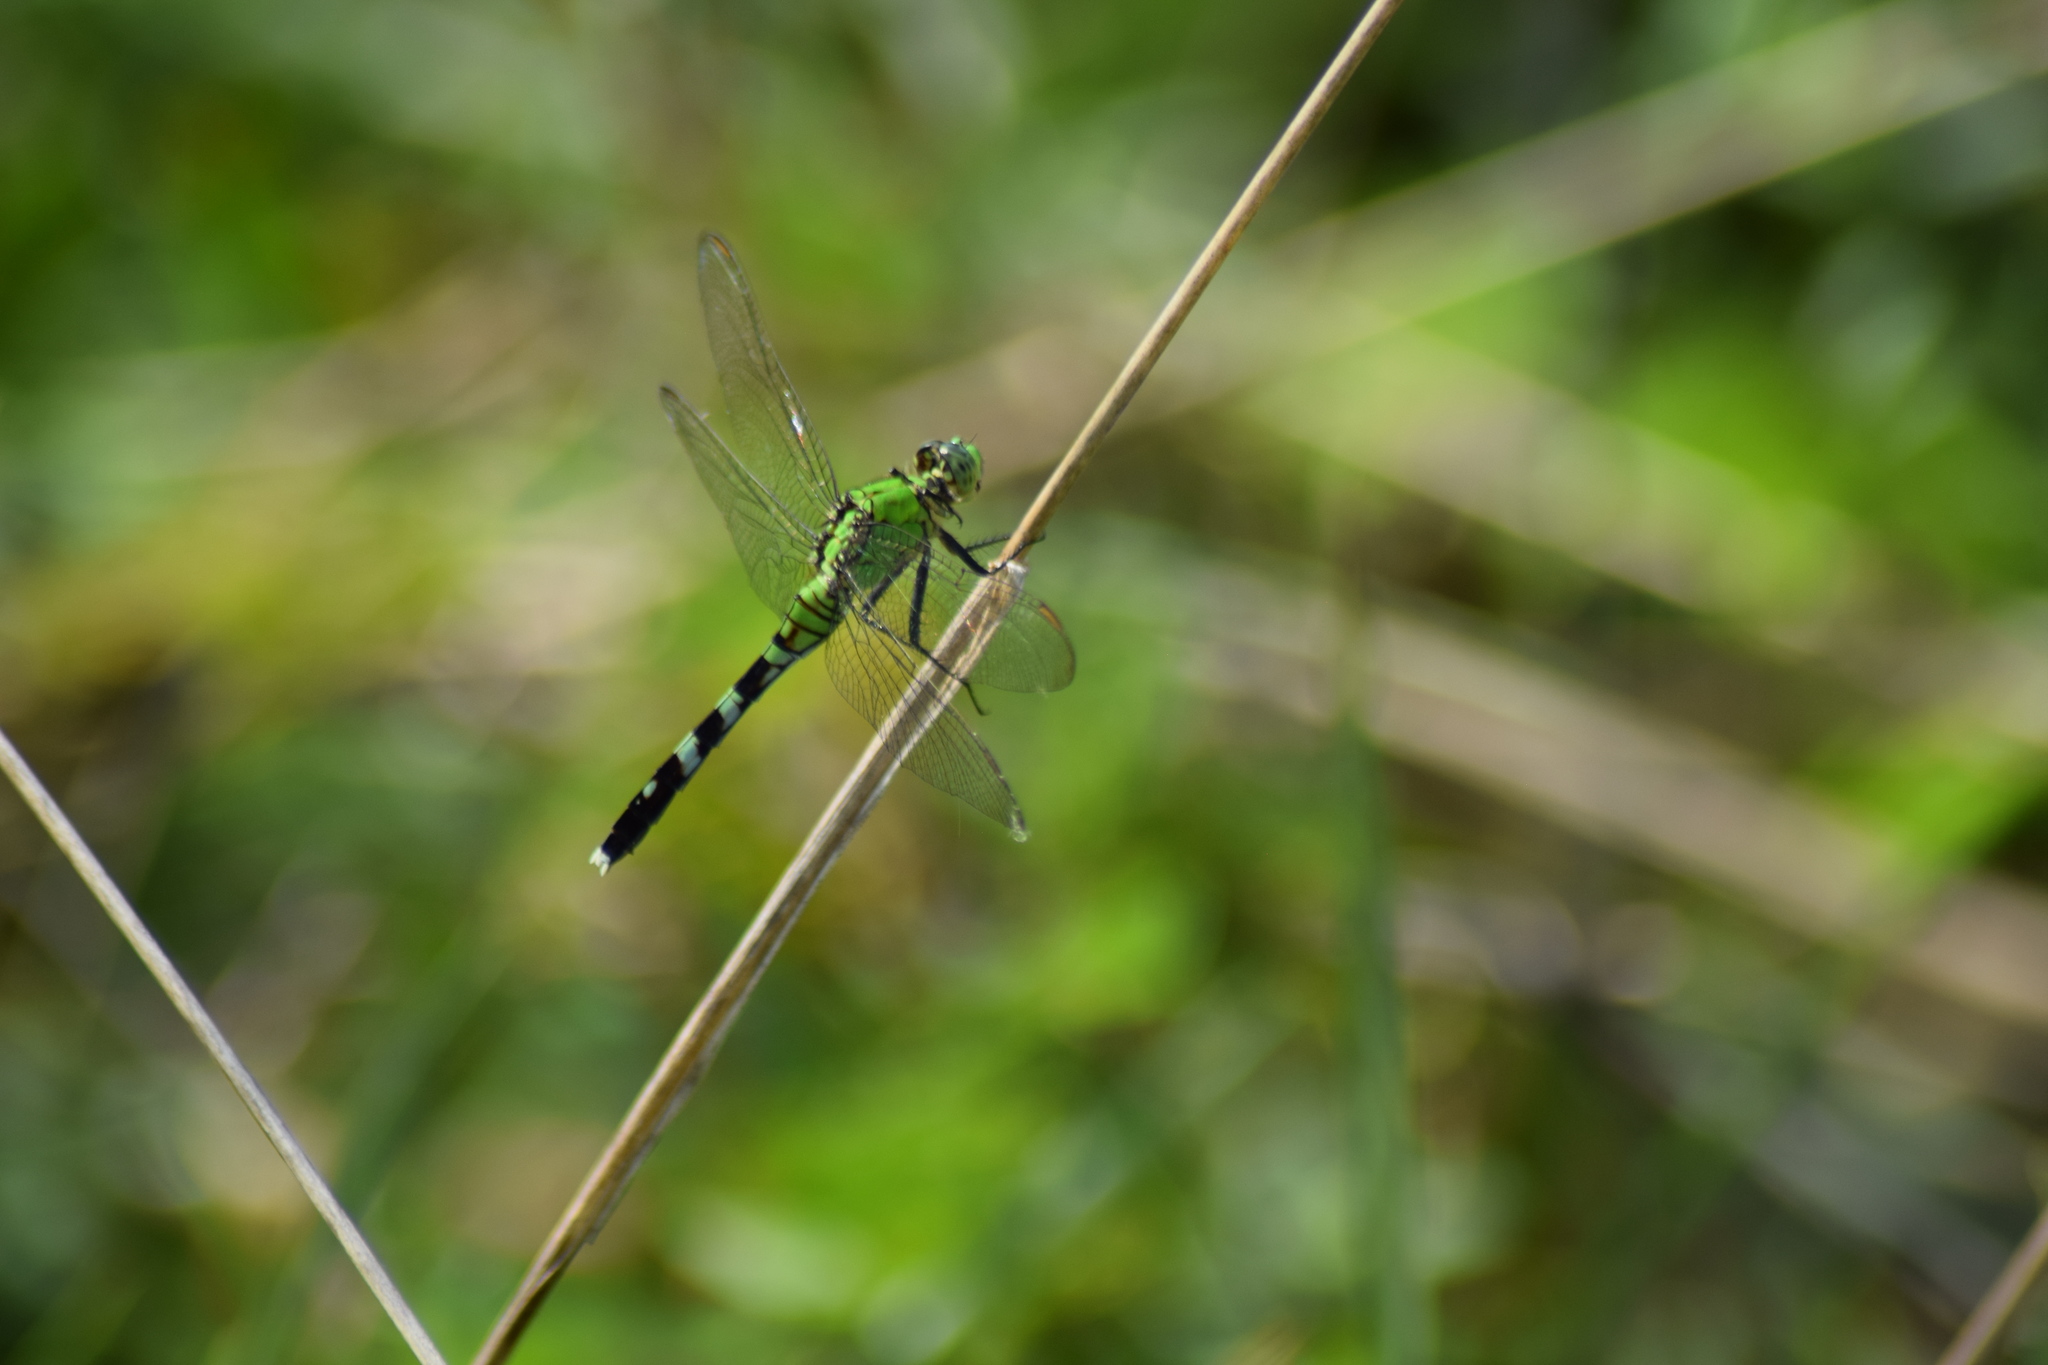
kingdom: Animalia
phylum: Arthropoda
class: Insecta
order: Odonata
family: Libellulidae
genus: Erythemis
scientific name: Erythemis simplicicollis
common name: Eastern pondhawk
